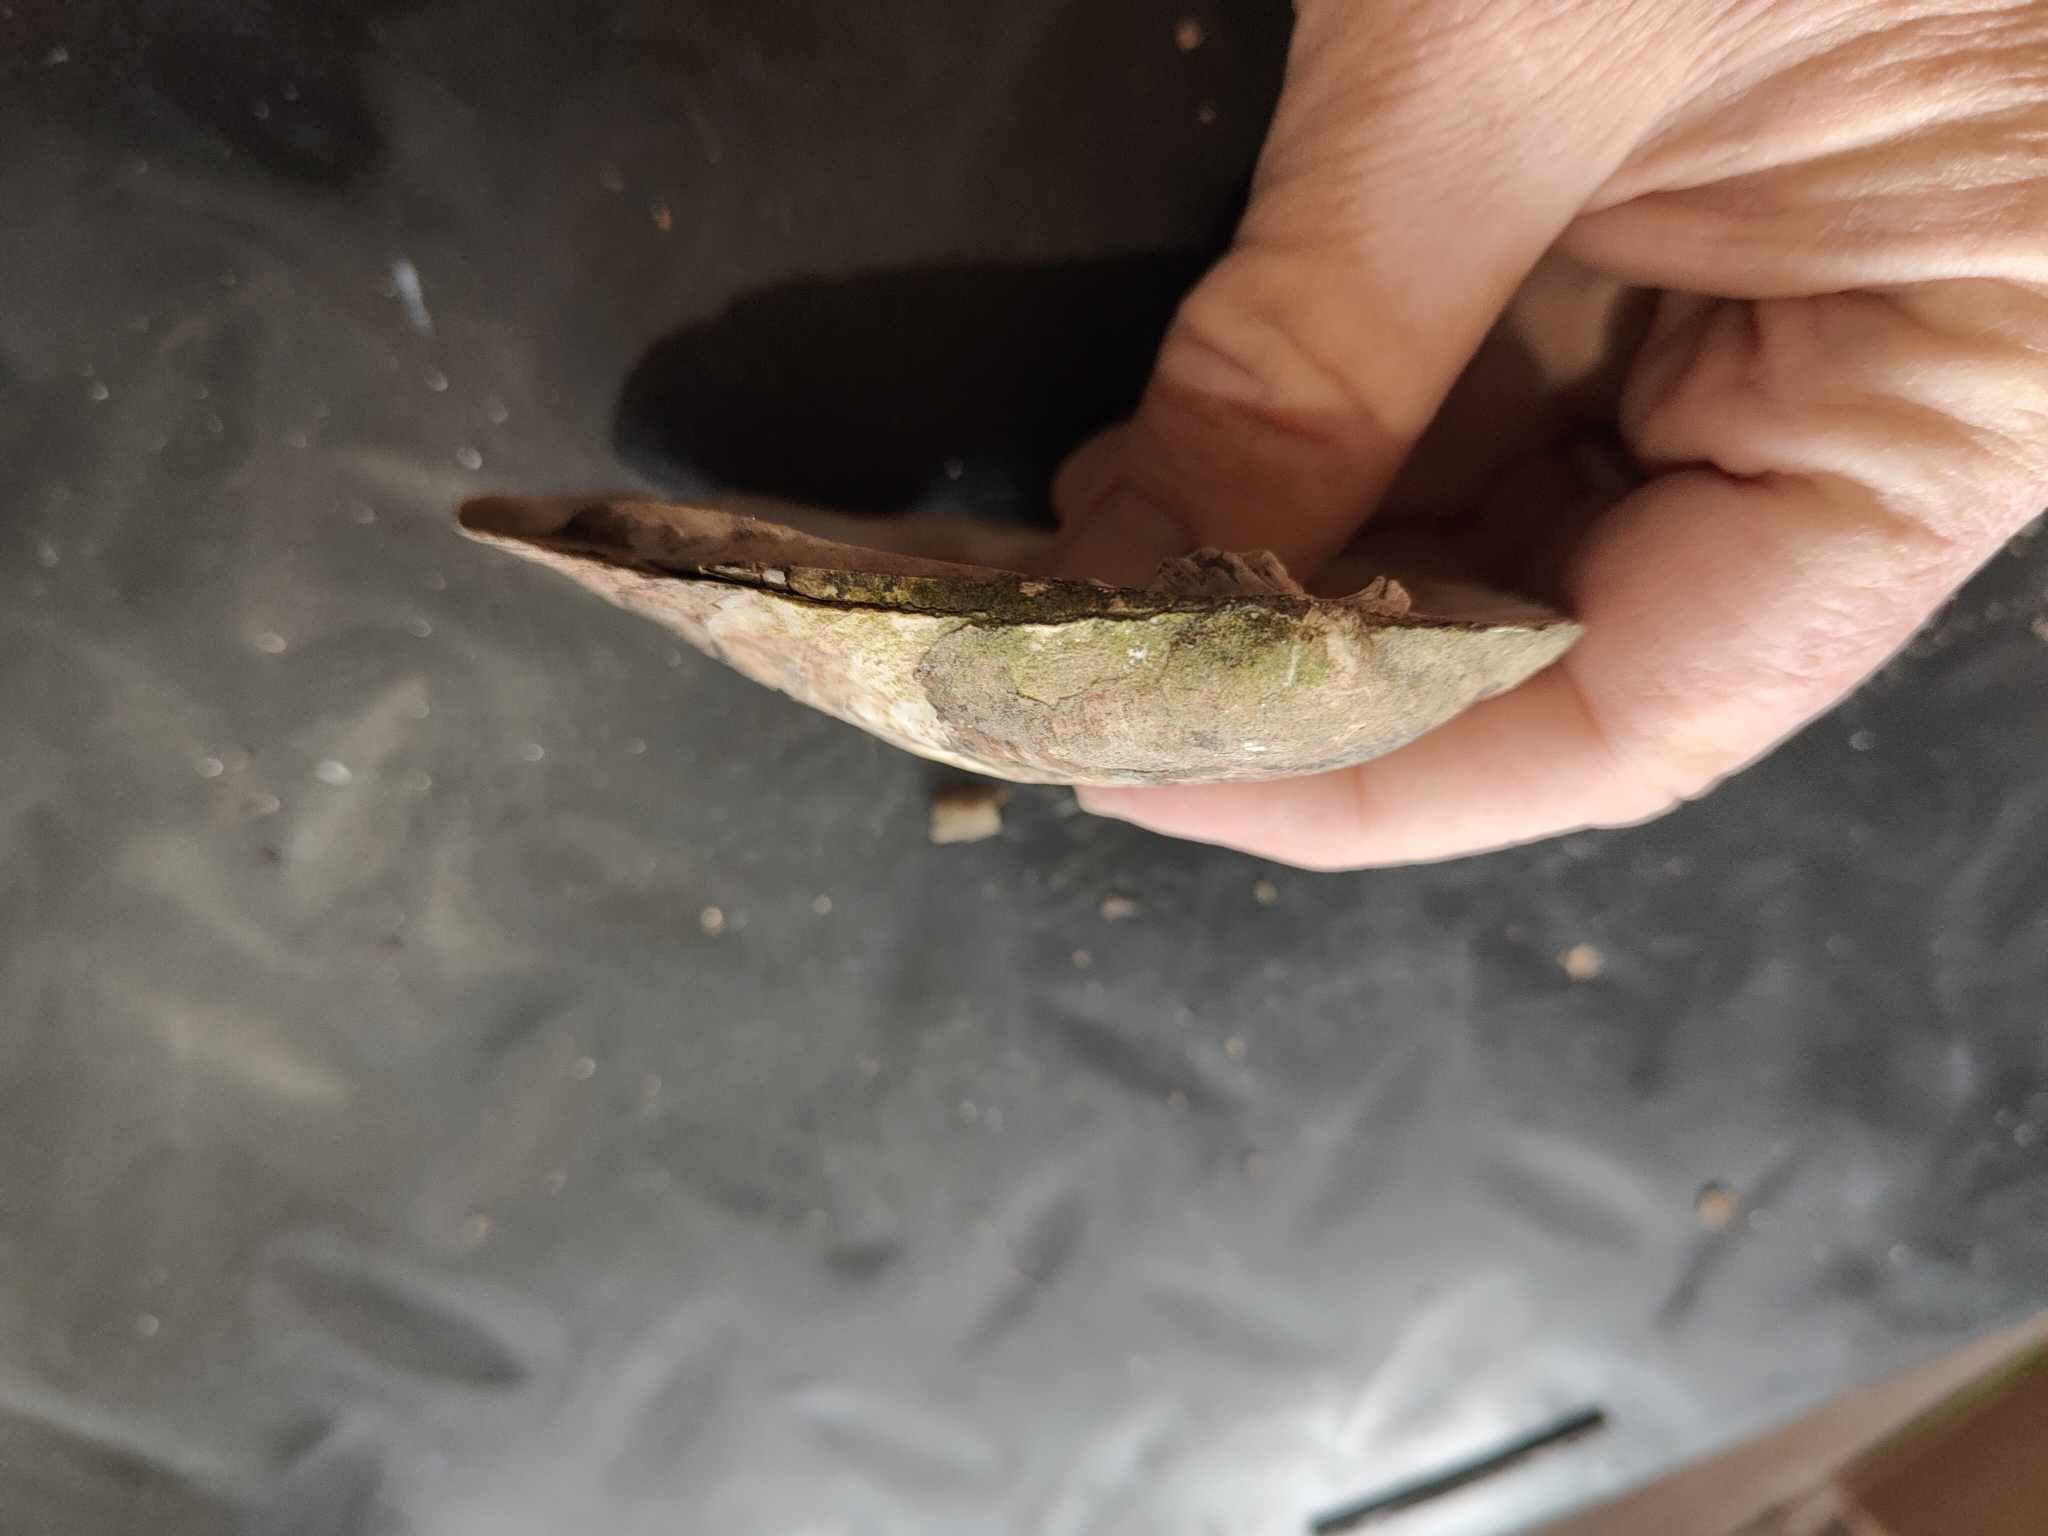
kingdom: Animalia
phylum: Mollusca
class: Bivalvia
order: Unionida
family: Unionidae
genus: Amblema
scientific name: Amblema plicata
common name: Threeridge
